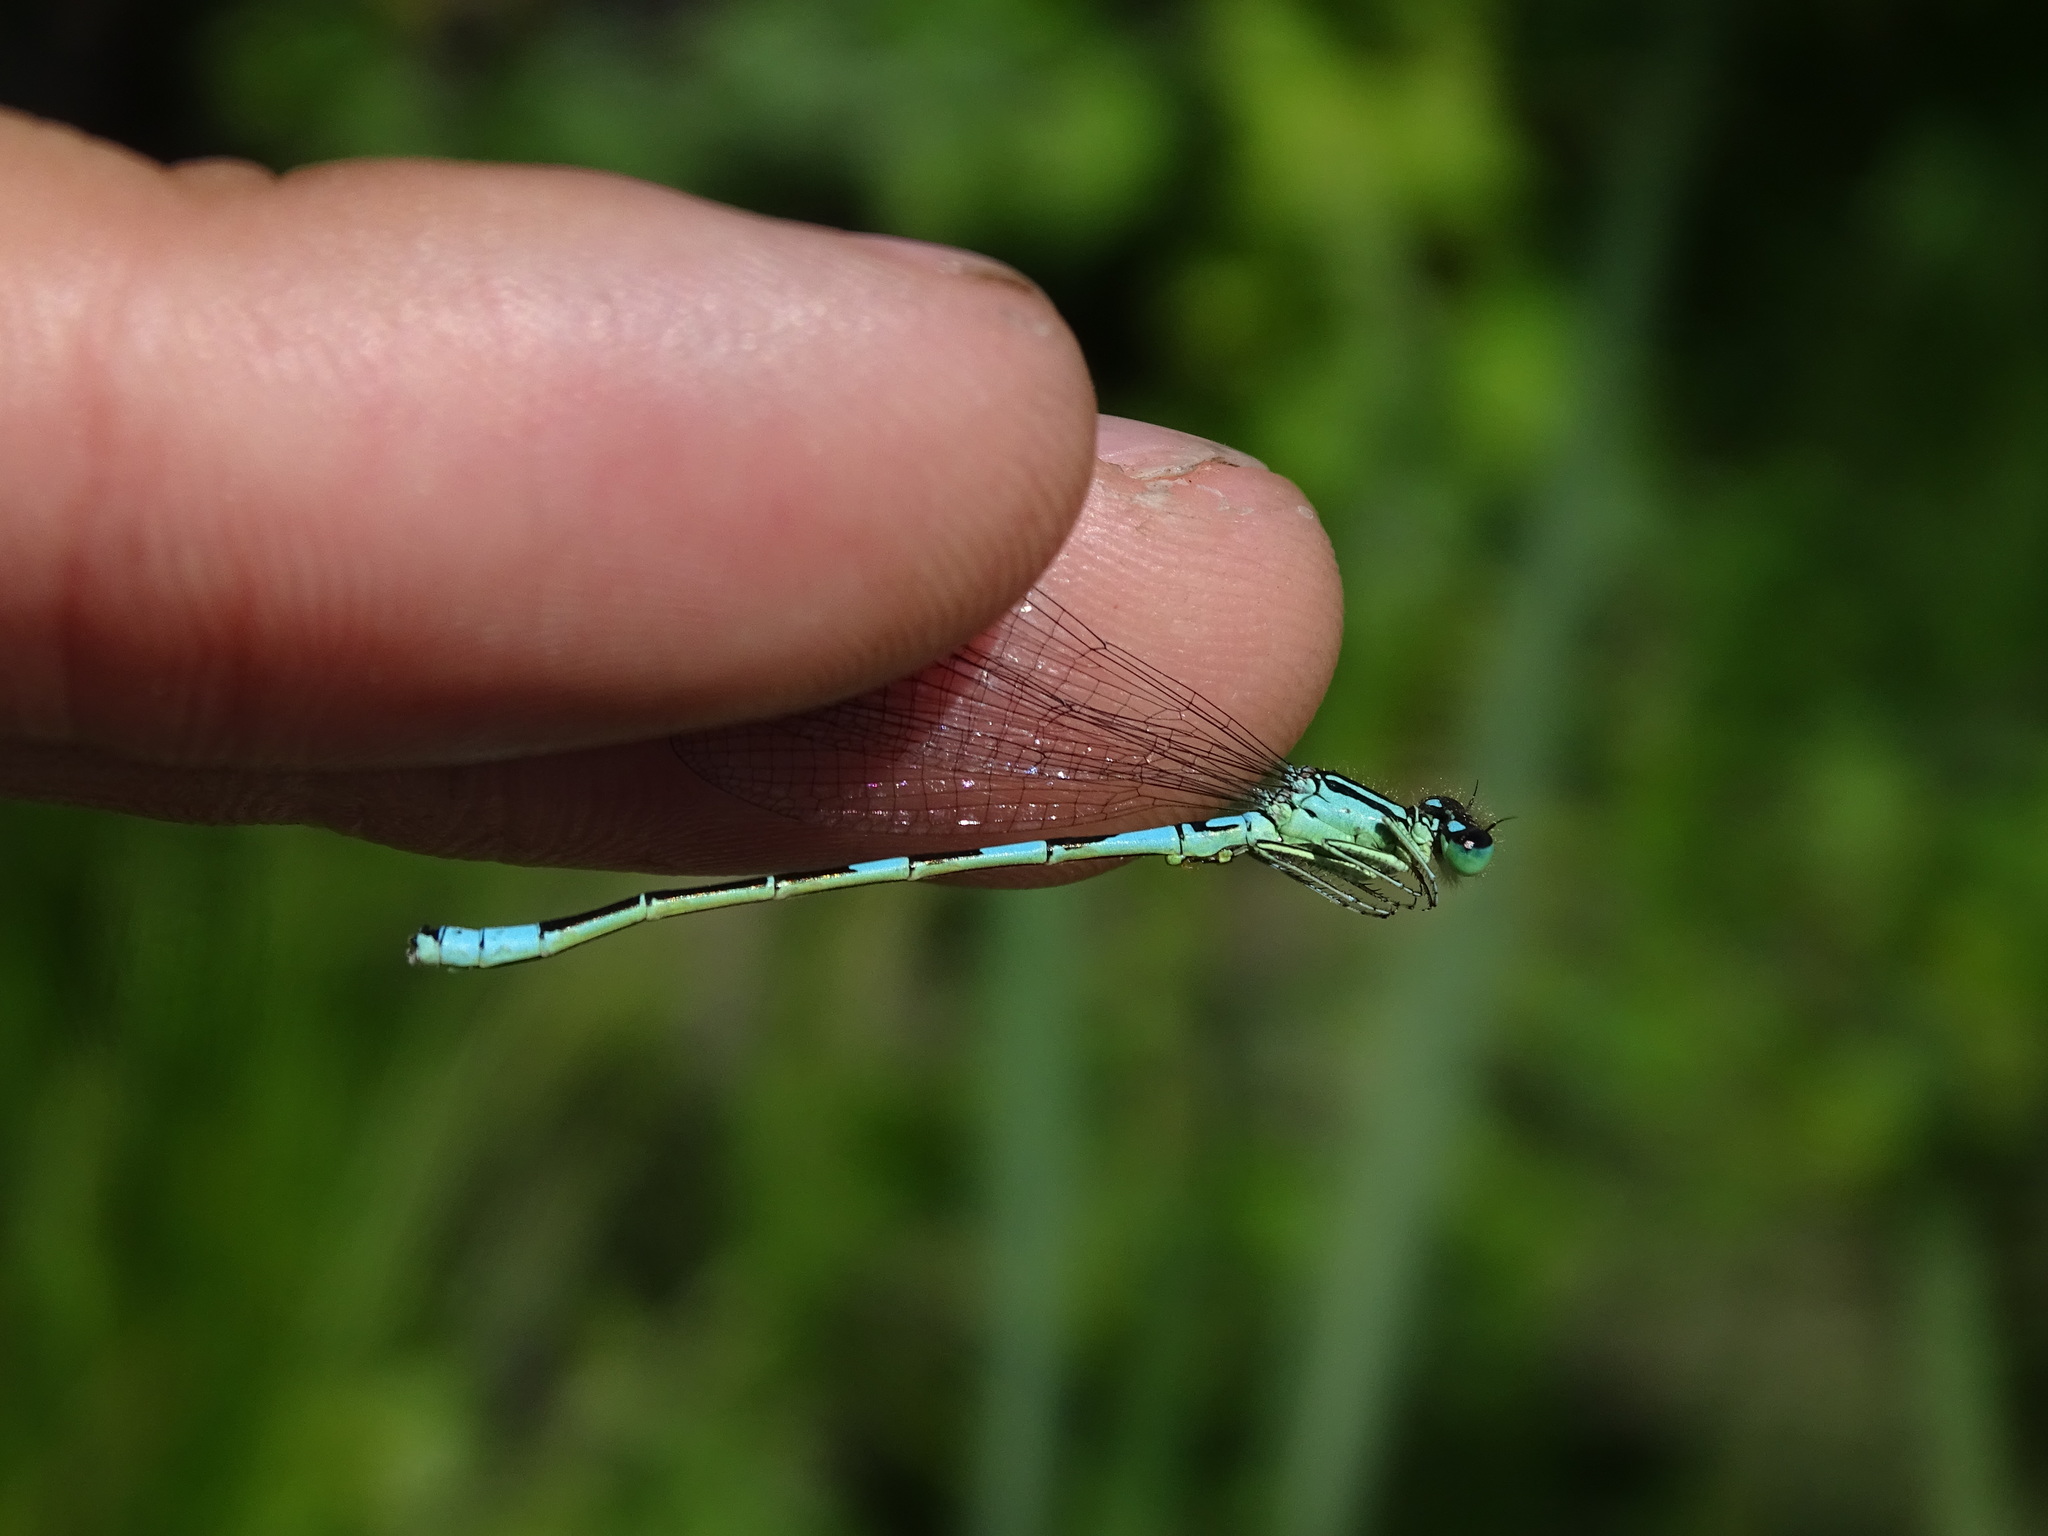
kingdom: Animalia
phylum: Arthropoda
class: Insecta
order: Odonata
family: Coenagrionidae
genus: Coenagrion
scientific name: Coenagrion resolutum
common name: Taiga bluet
